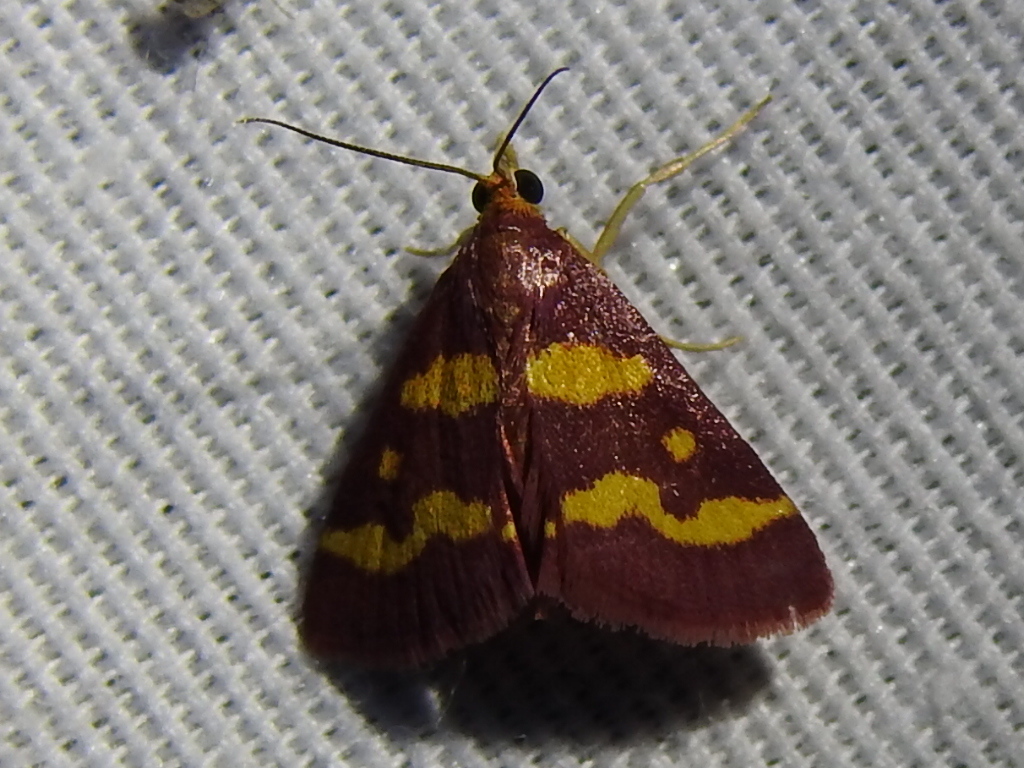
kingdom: Animalia
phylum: Arthropoda
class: Insecta
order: Lepidoptera
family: Crambidae
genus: Pyrausta
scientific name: Pyrausta tyralis
